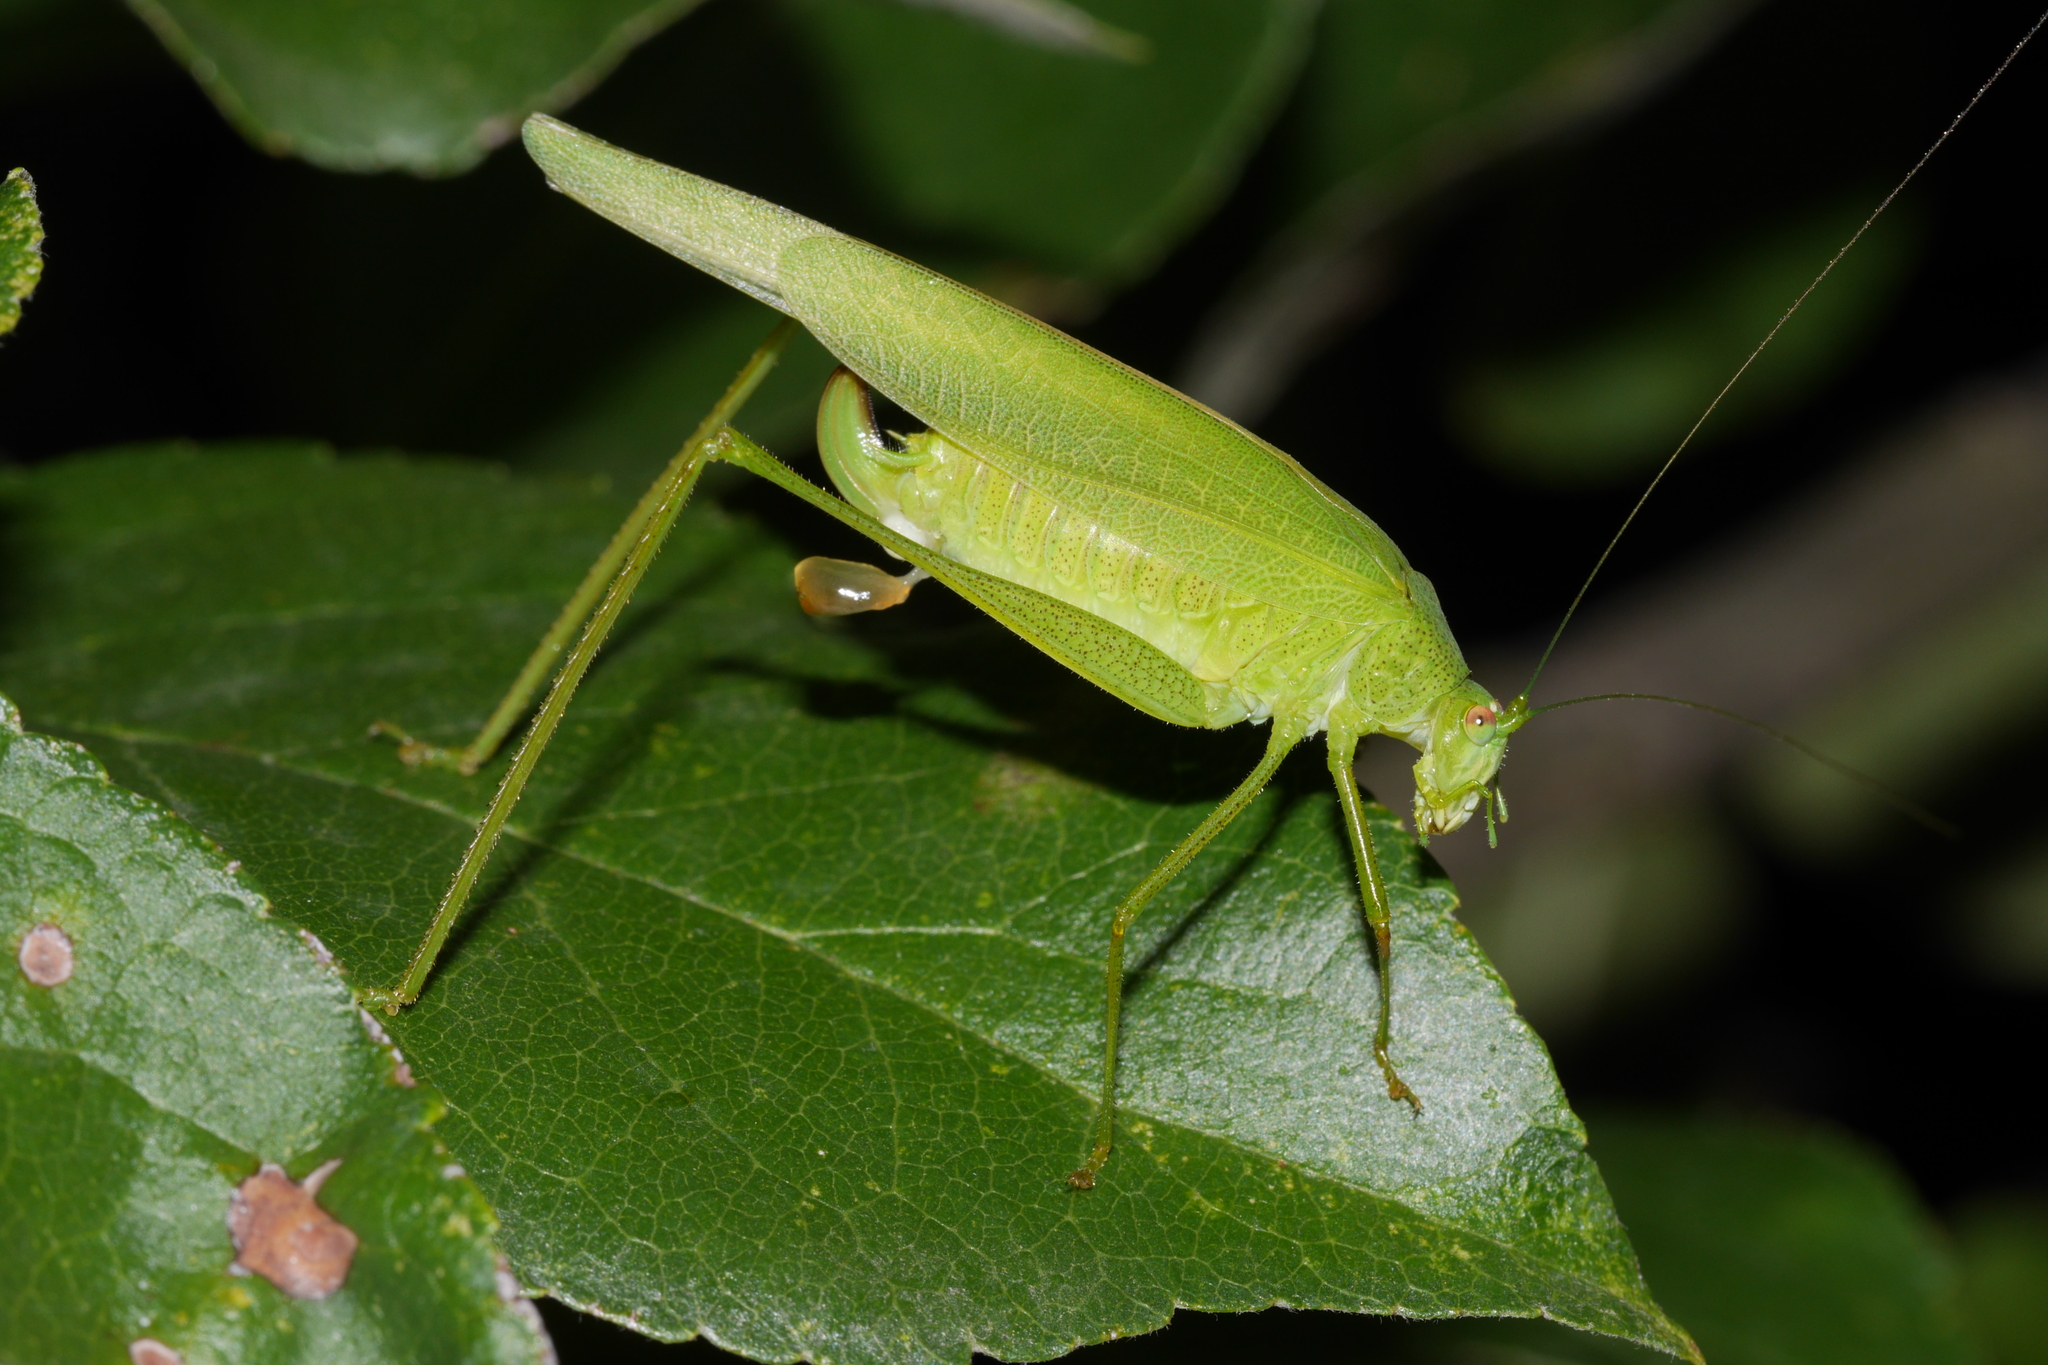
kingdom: Animalia
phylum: Arthropoda
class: Insecta
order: Orthoptera
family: Tettigoniidae
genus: Phaneroptera
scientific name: Phaneroptera nana
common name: Southern sickle bush-cricket
